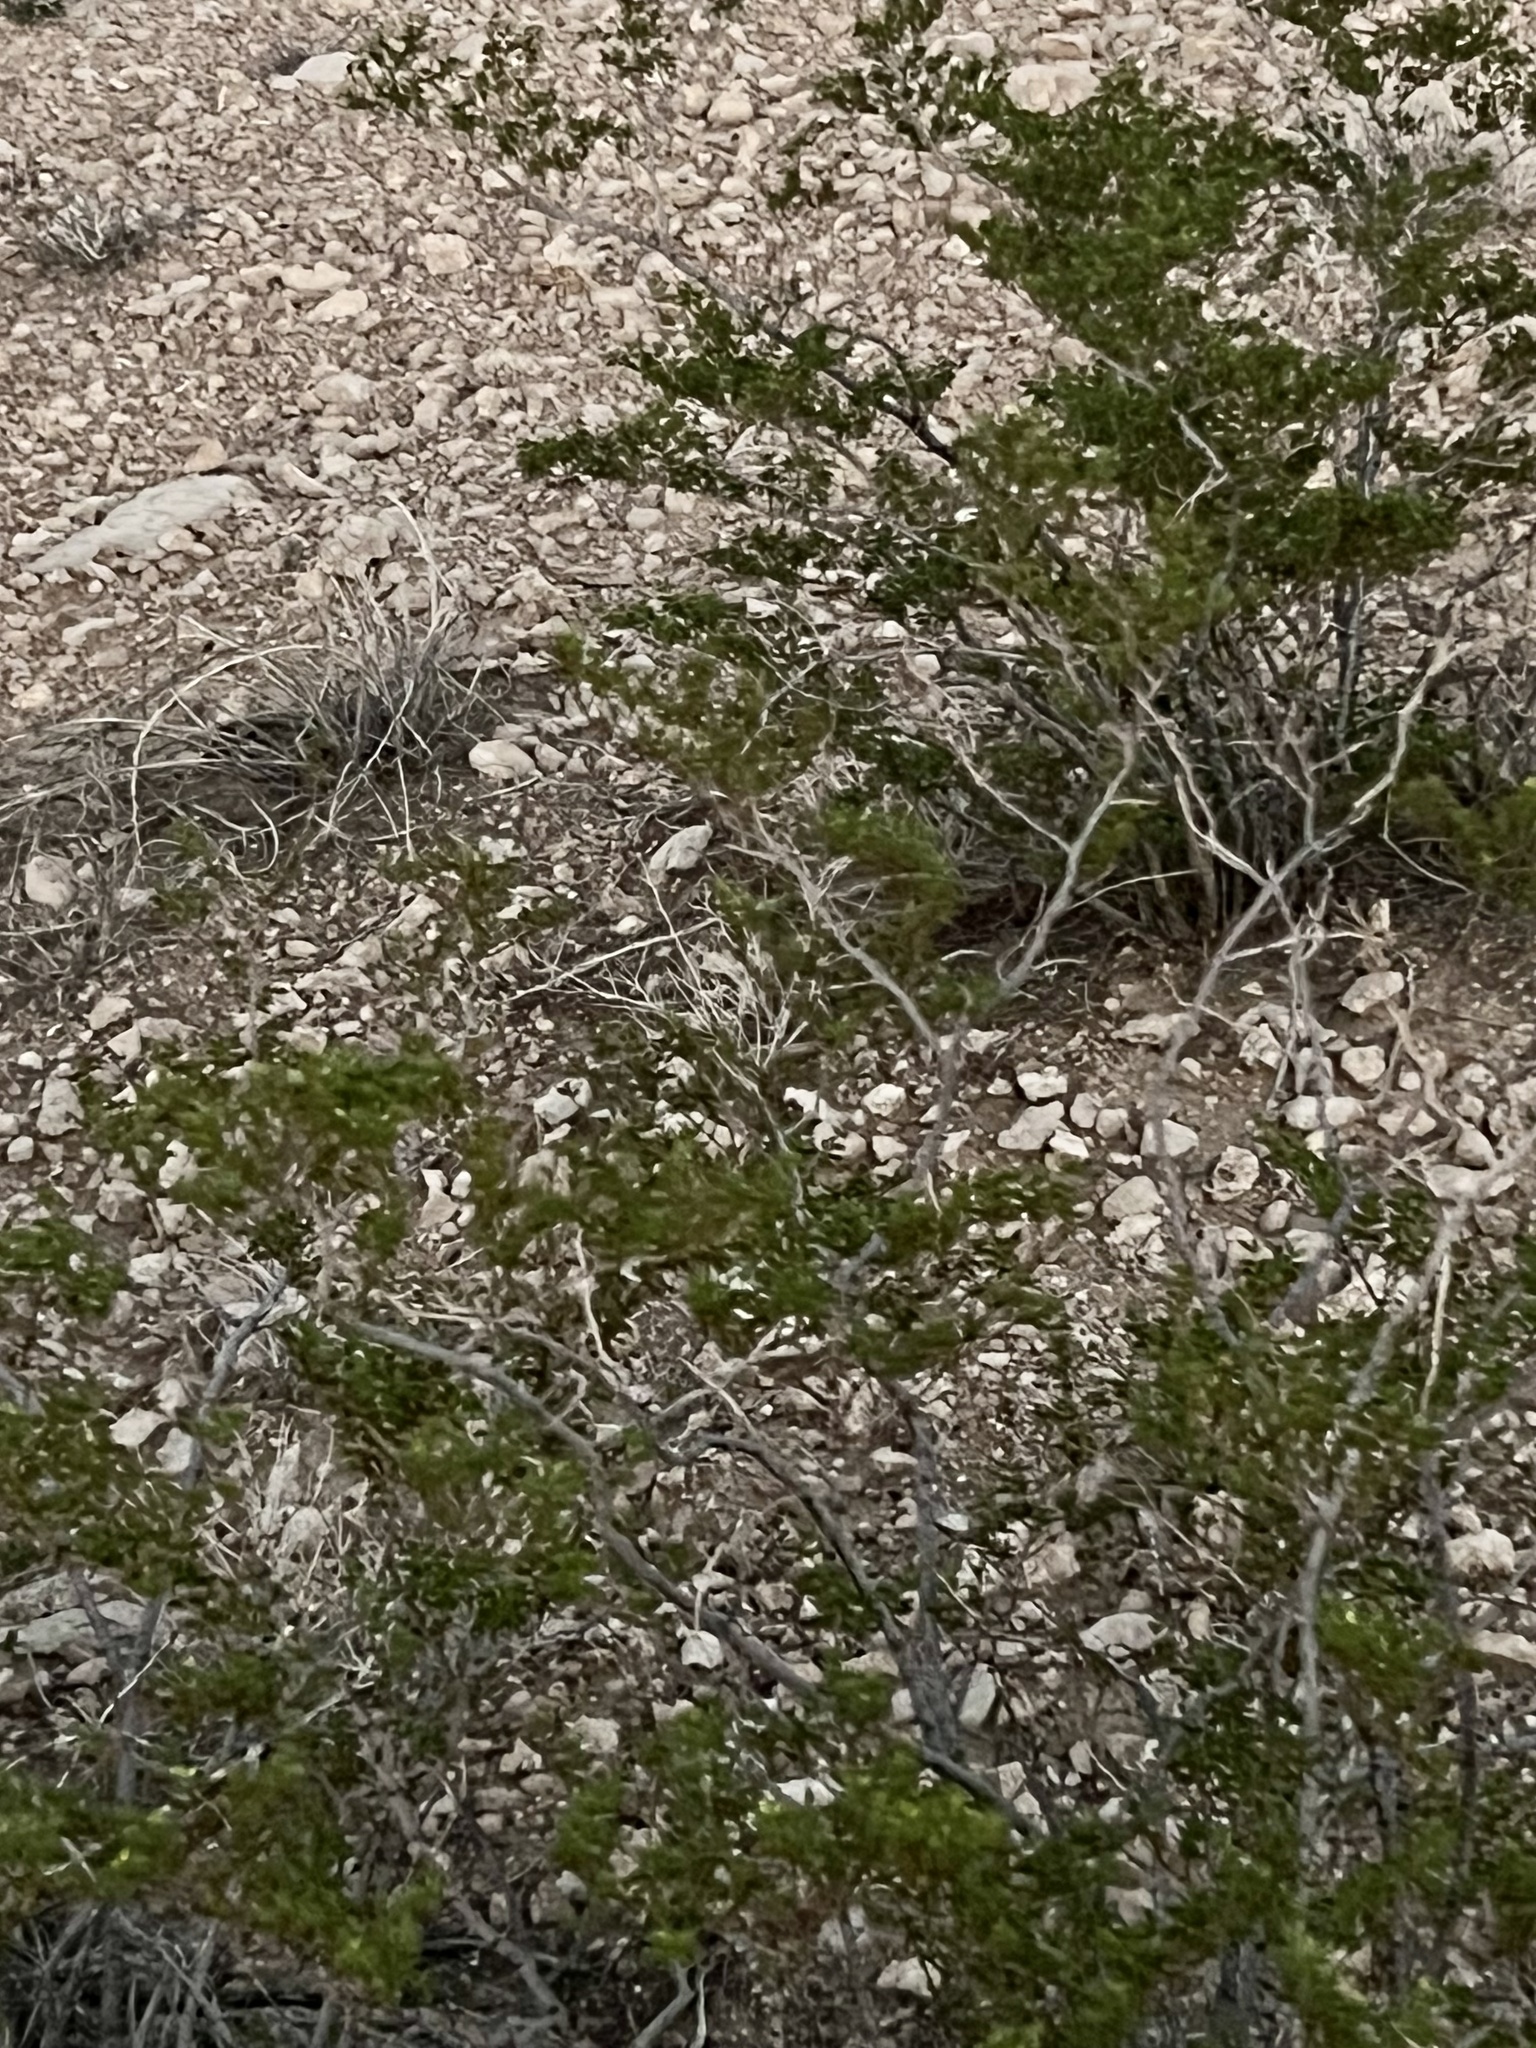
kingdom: Plantae
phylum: Tracheophyta
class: Magnoliopsida
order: Zygophyllales
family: Zygophyllaceae
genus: Larrea
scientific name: Larrea tridentata
